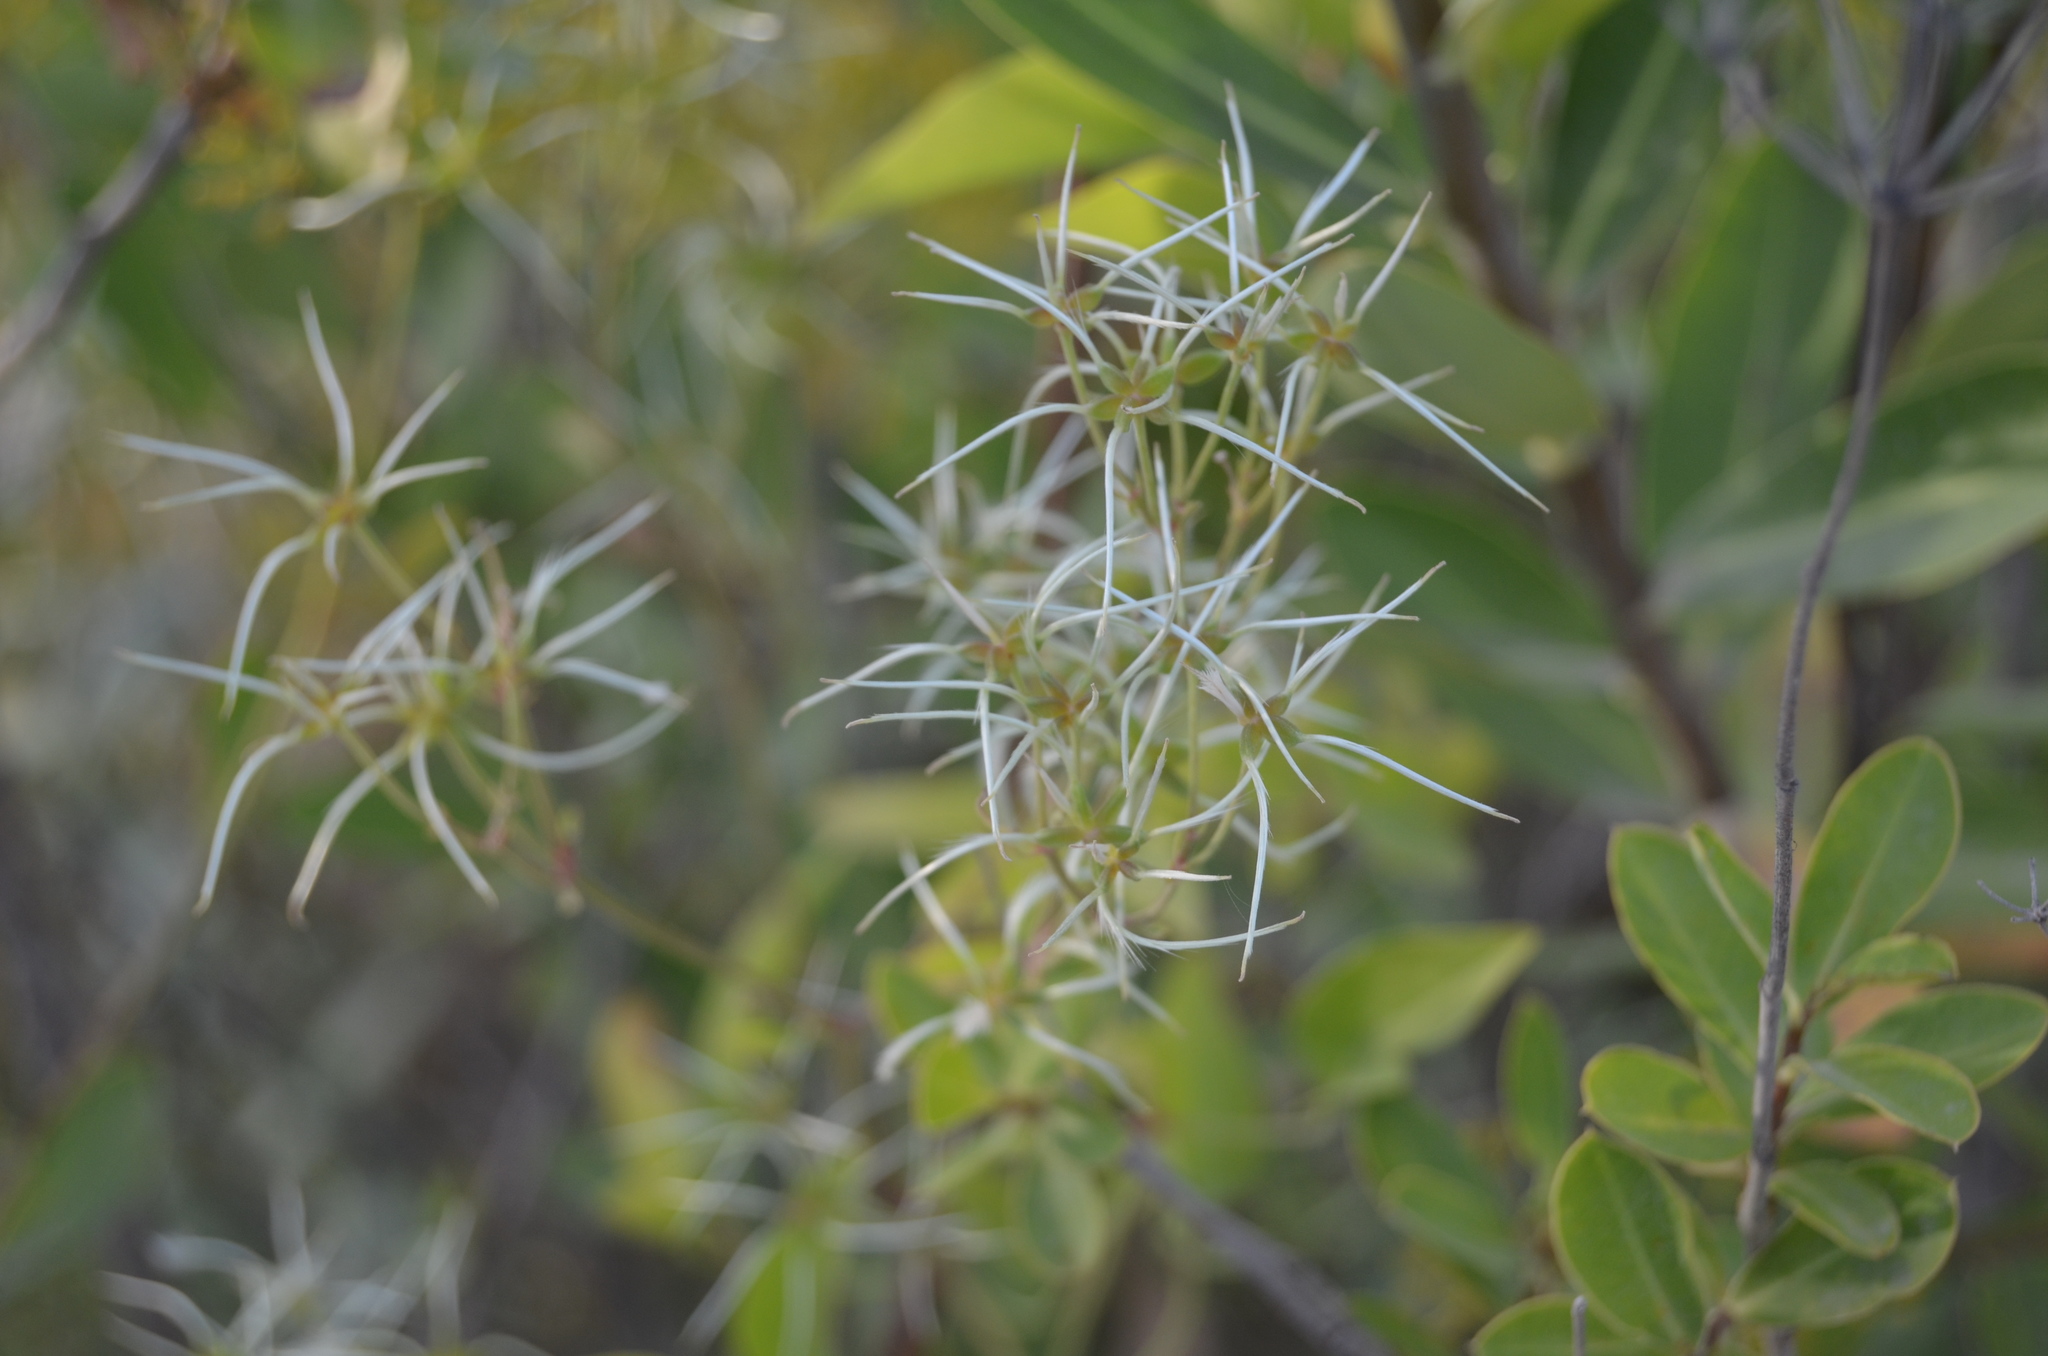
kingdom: Plantae
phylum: Tracheophyta
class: Magnoliopsida
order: Ranunculales
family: Ranunculaceae
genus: Clematis
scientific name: Clematis flammula
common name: Virgin's-bower
